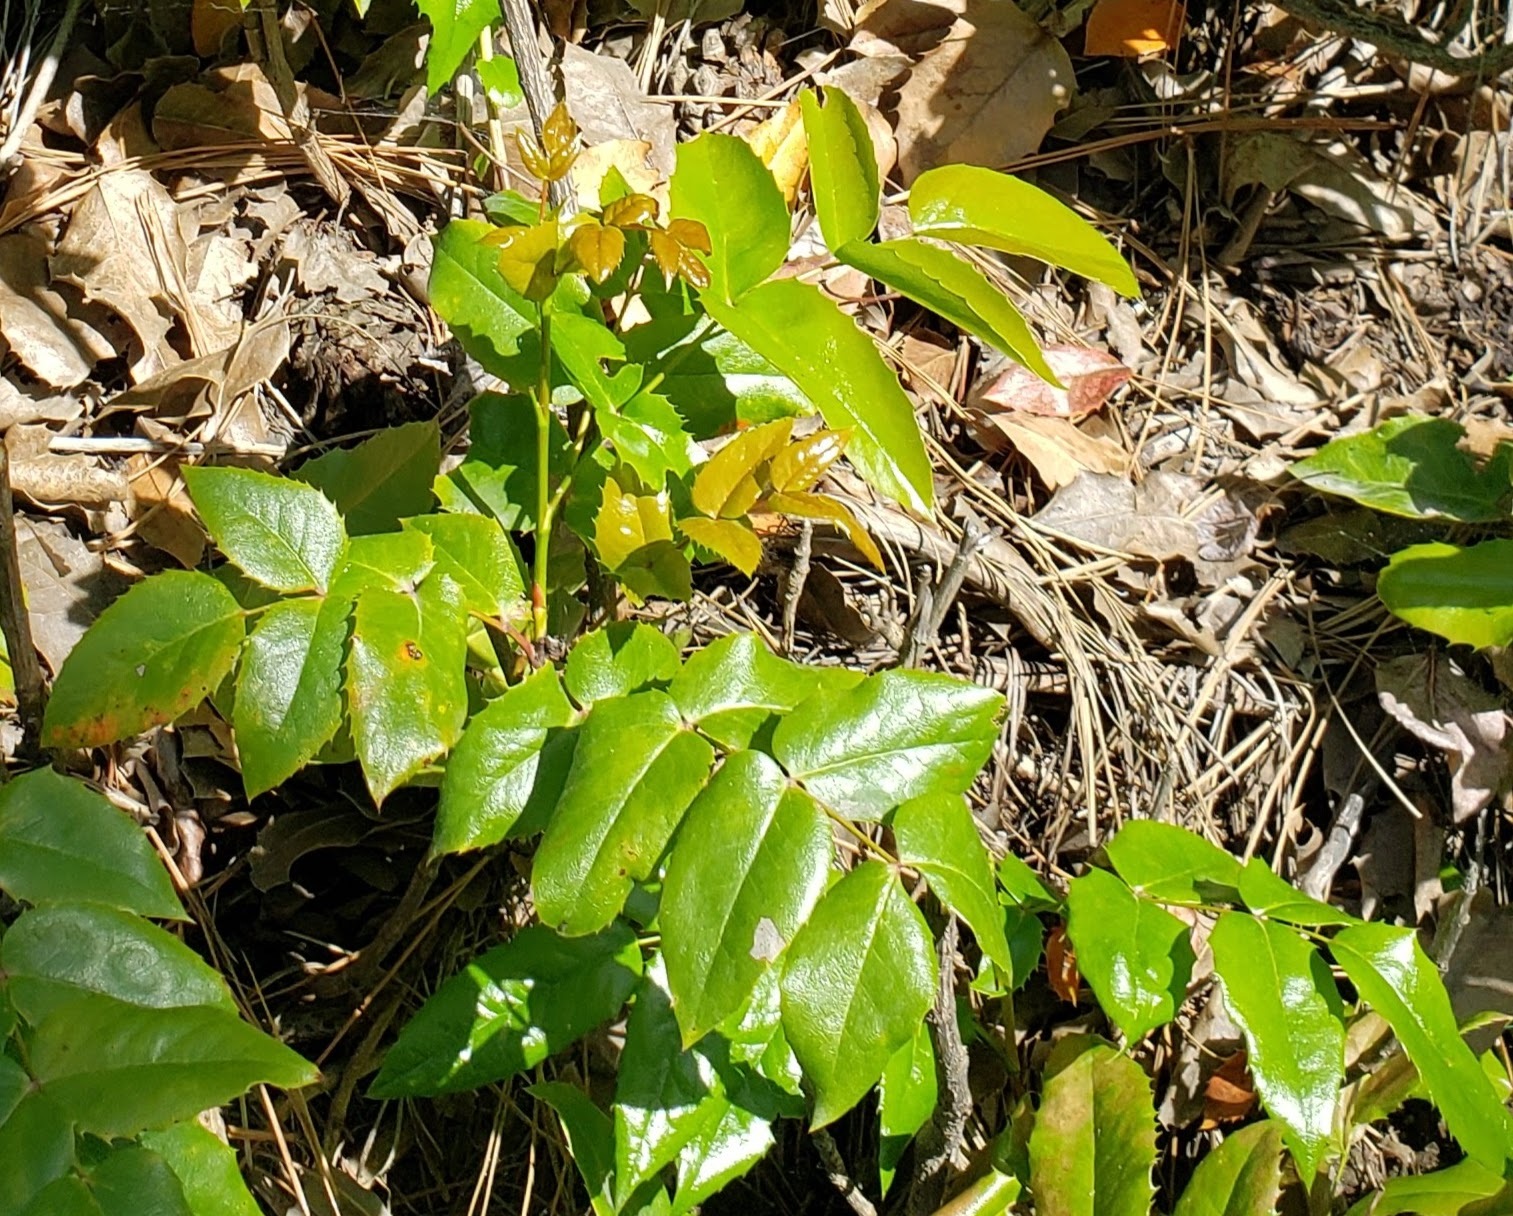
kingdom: Plantae
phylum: Tracheophyta
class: Magnoliopsida
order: Ranunculales
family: Berberidaceae
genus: Mahonia
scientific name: Mahonia aquifolium
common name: Oregon-grape
